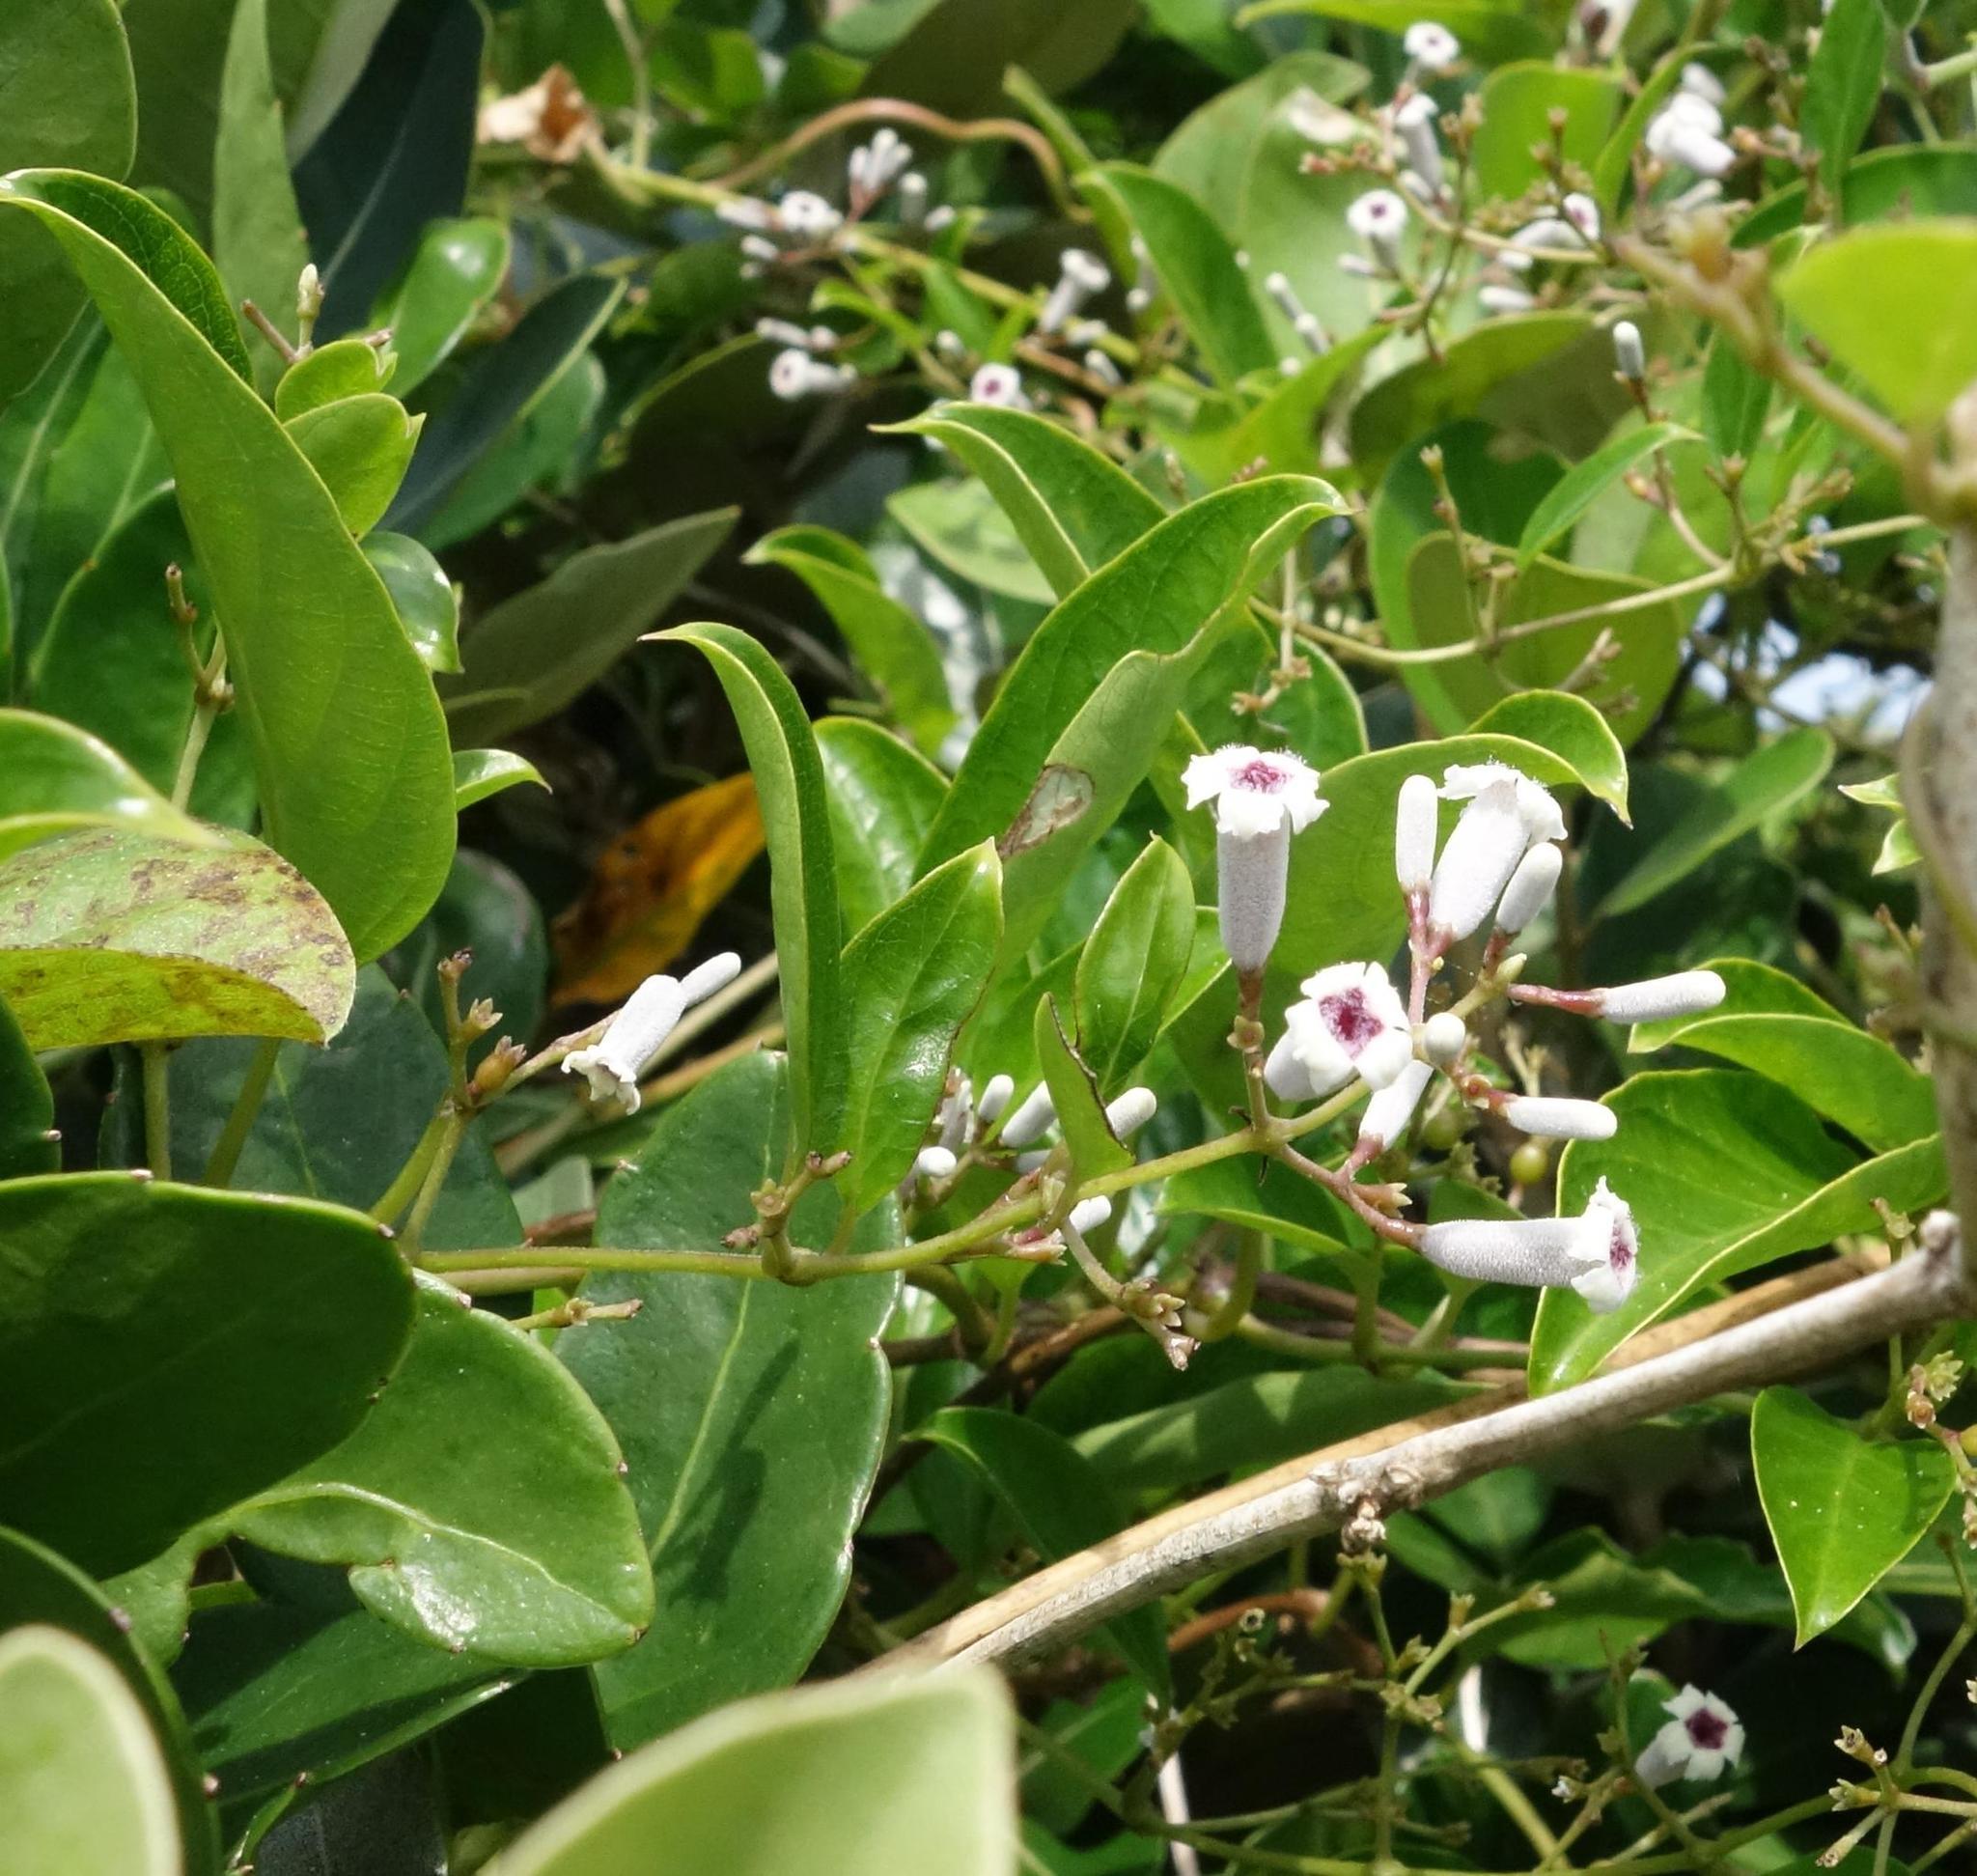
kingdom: Plantae
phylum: Tracheophyta
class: Magnoliopsida
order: Gentianales
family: Rubiaceae
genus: Paederia
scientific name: Paederia foetida
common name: Stinkvine
